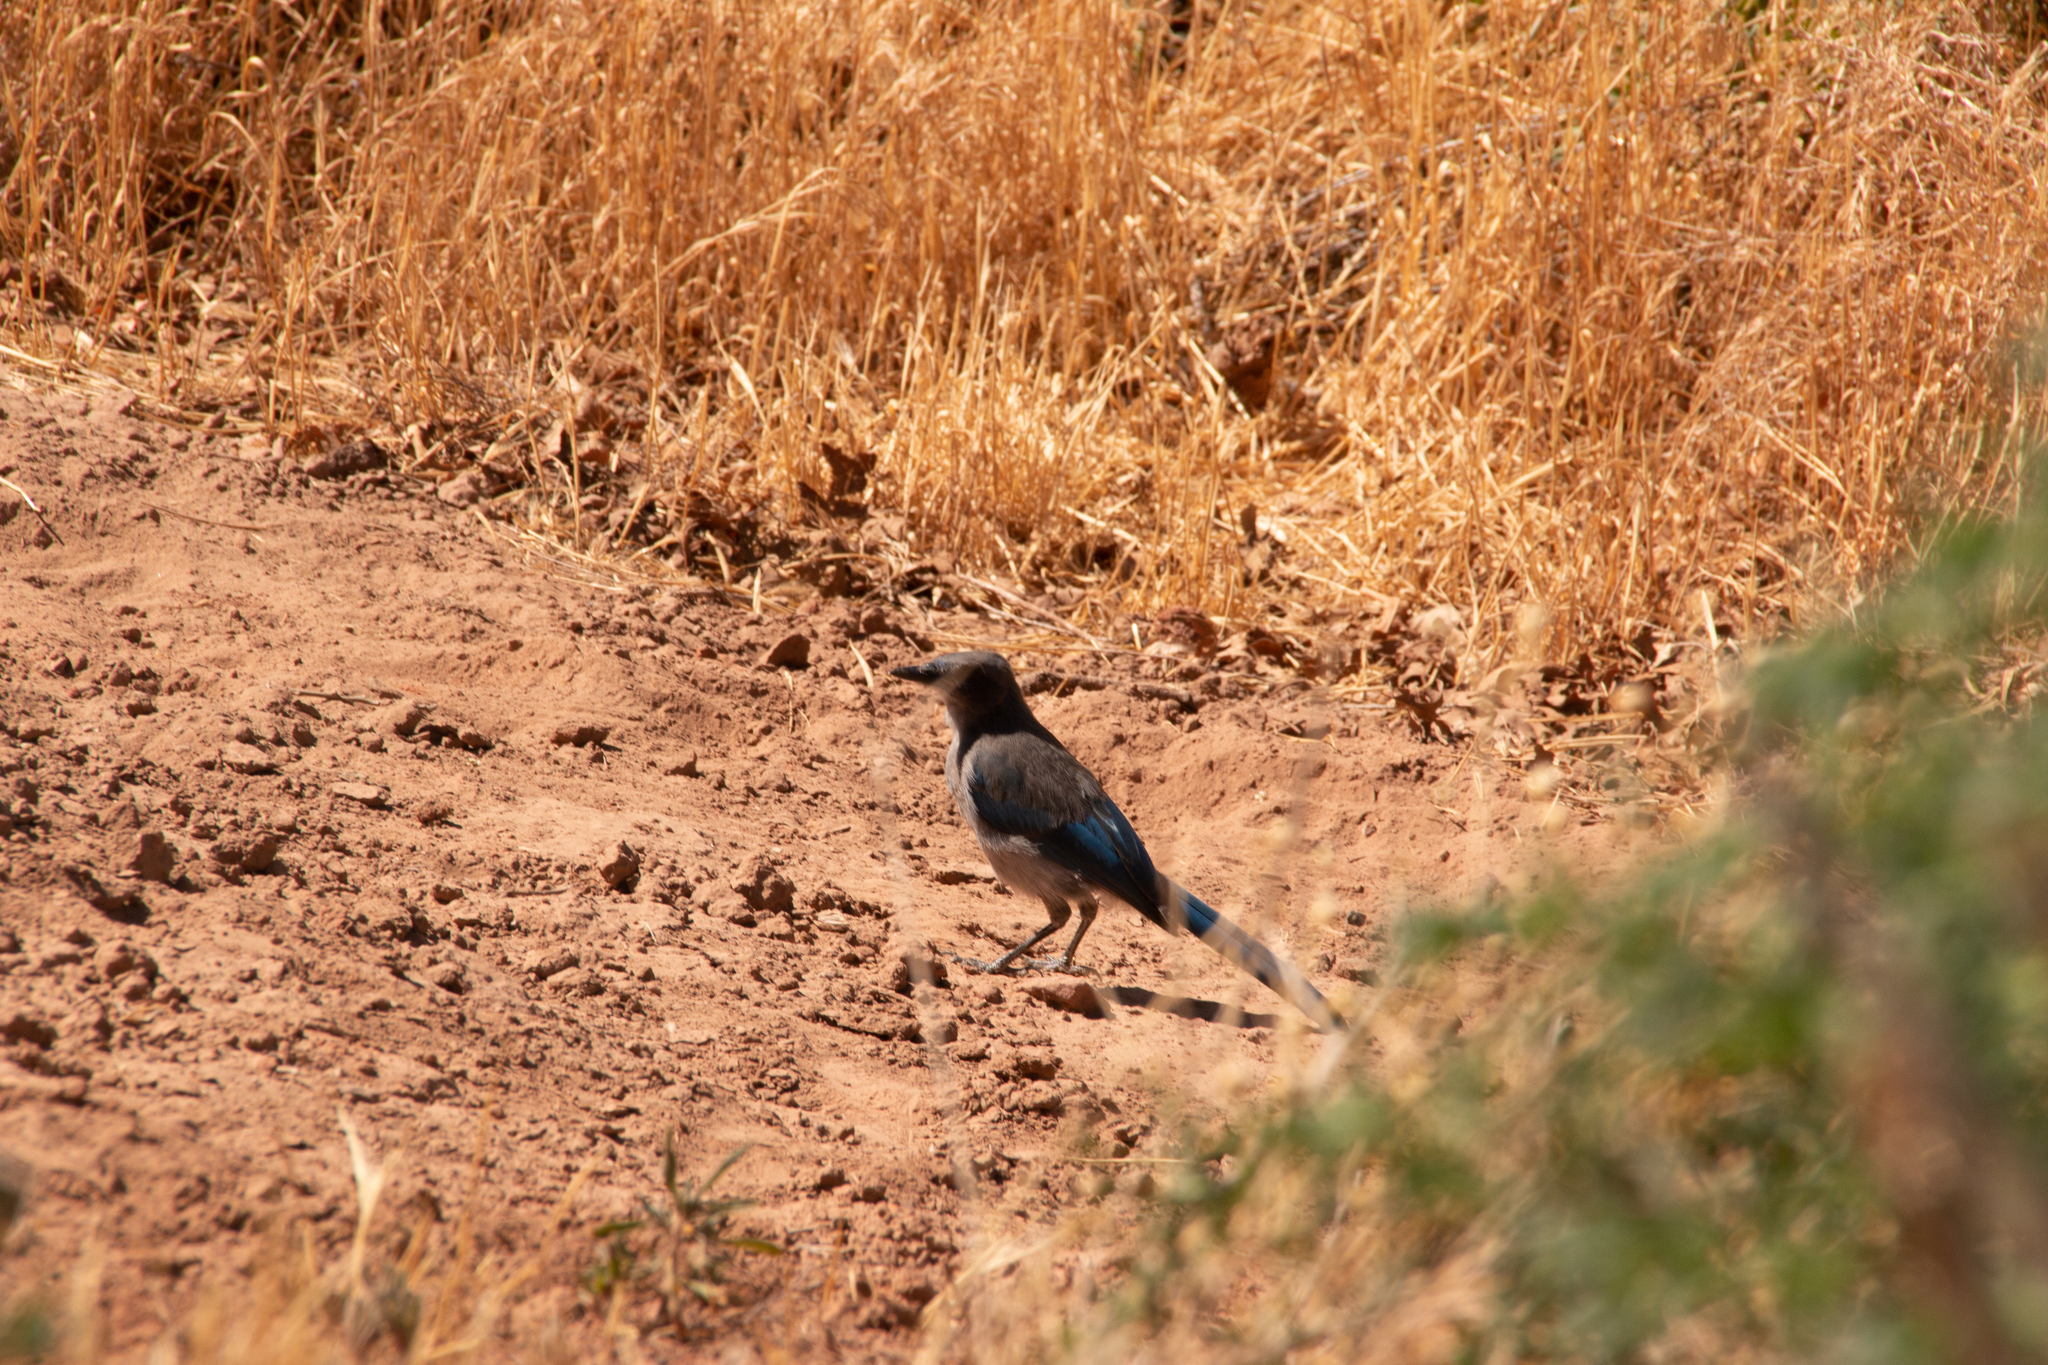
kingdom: Animalia
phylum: Chordata
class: Aves
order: Passeriformes
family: Corvidae
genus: Aphelocoma
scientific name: Aphelocoma woodhouseii
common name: Woodhouse's scrub-jay
